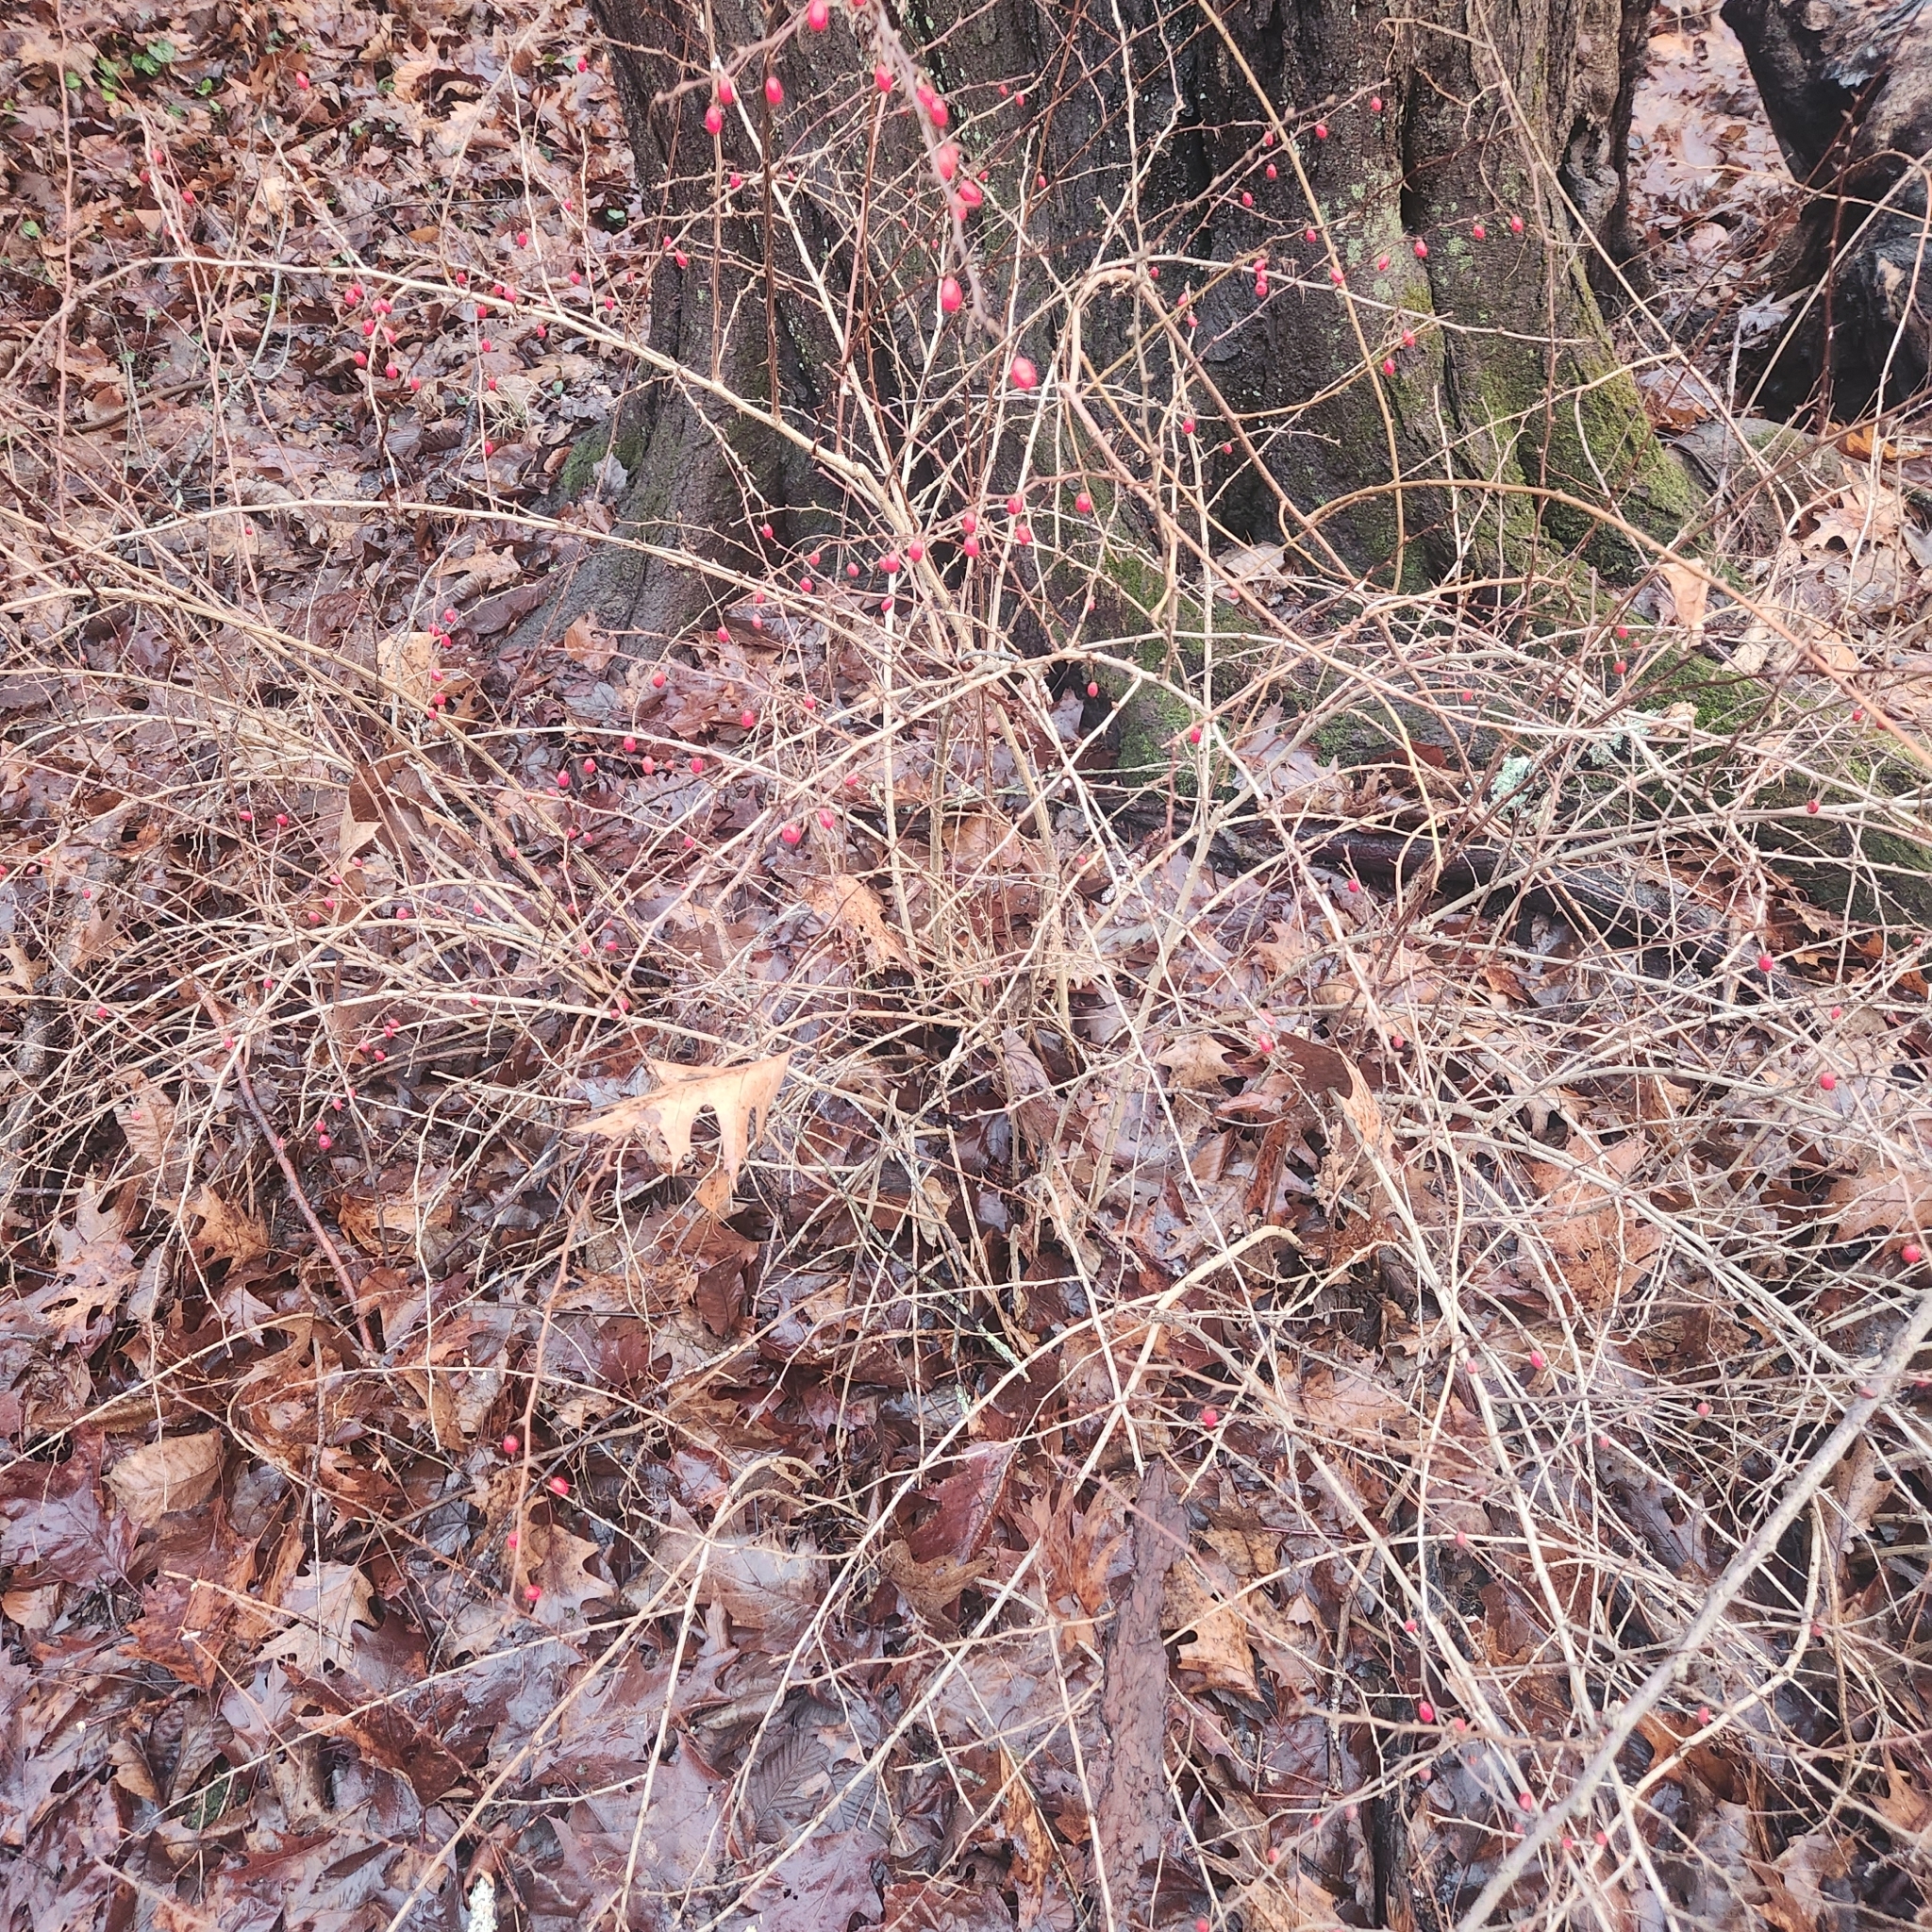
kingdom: Plantae
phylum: Tracheophyta
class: Magnoliopsida
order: Ranunculales
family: Berberidaceae
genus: Berberis
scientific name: Berberis thunbergii
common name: Japanese barberry
